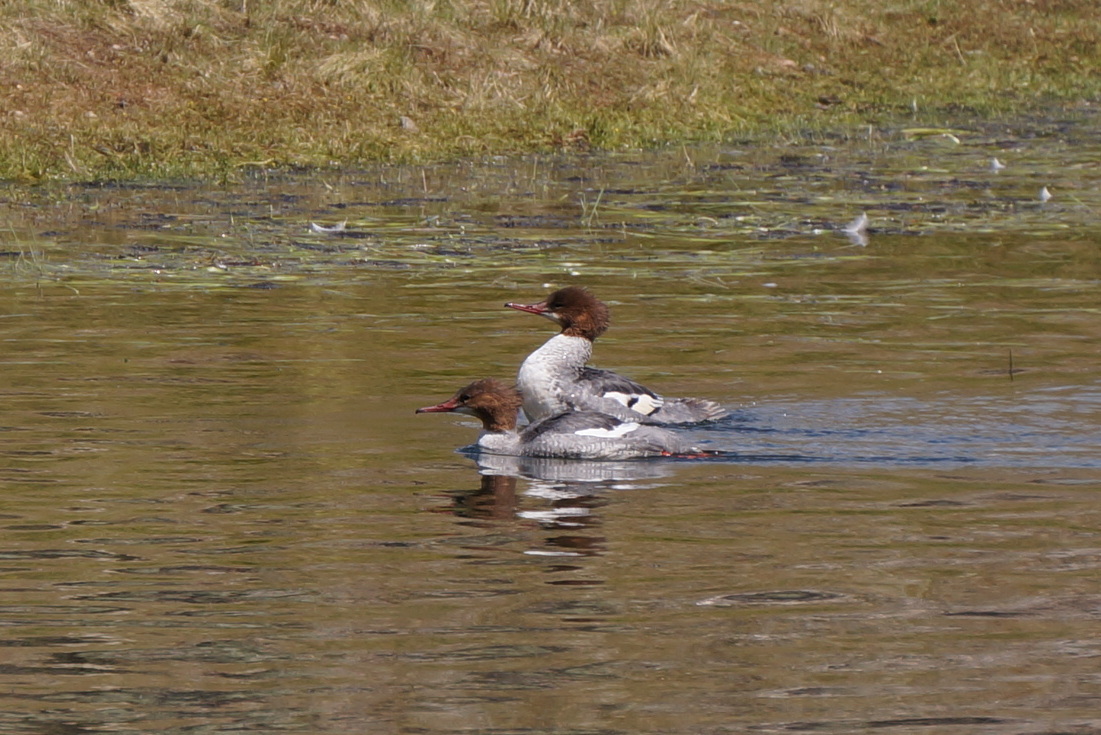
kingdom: Animalia
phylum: Chordata
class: Aves
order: Anseriformes
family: Anatidae
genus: Mergus
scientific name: Mergus merganser
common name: Common merganser
